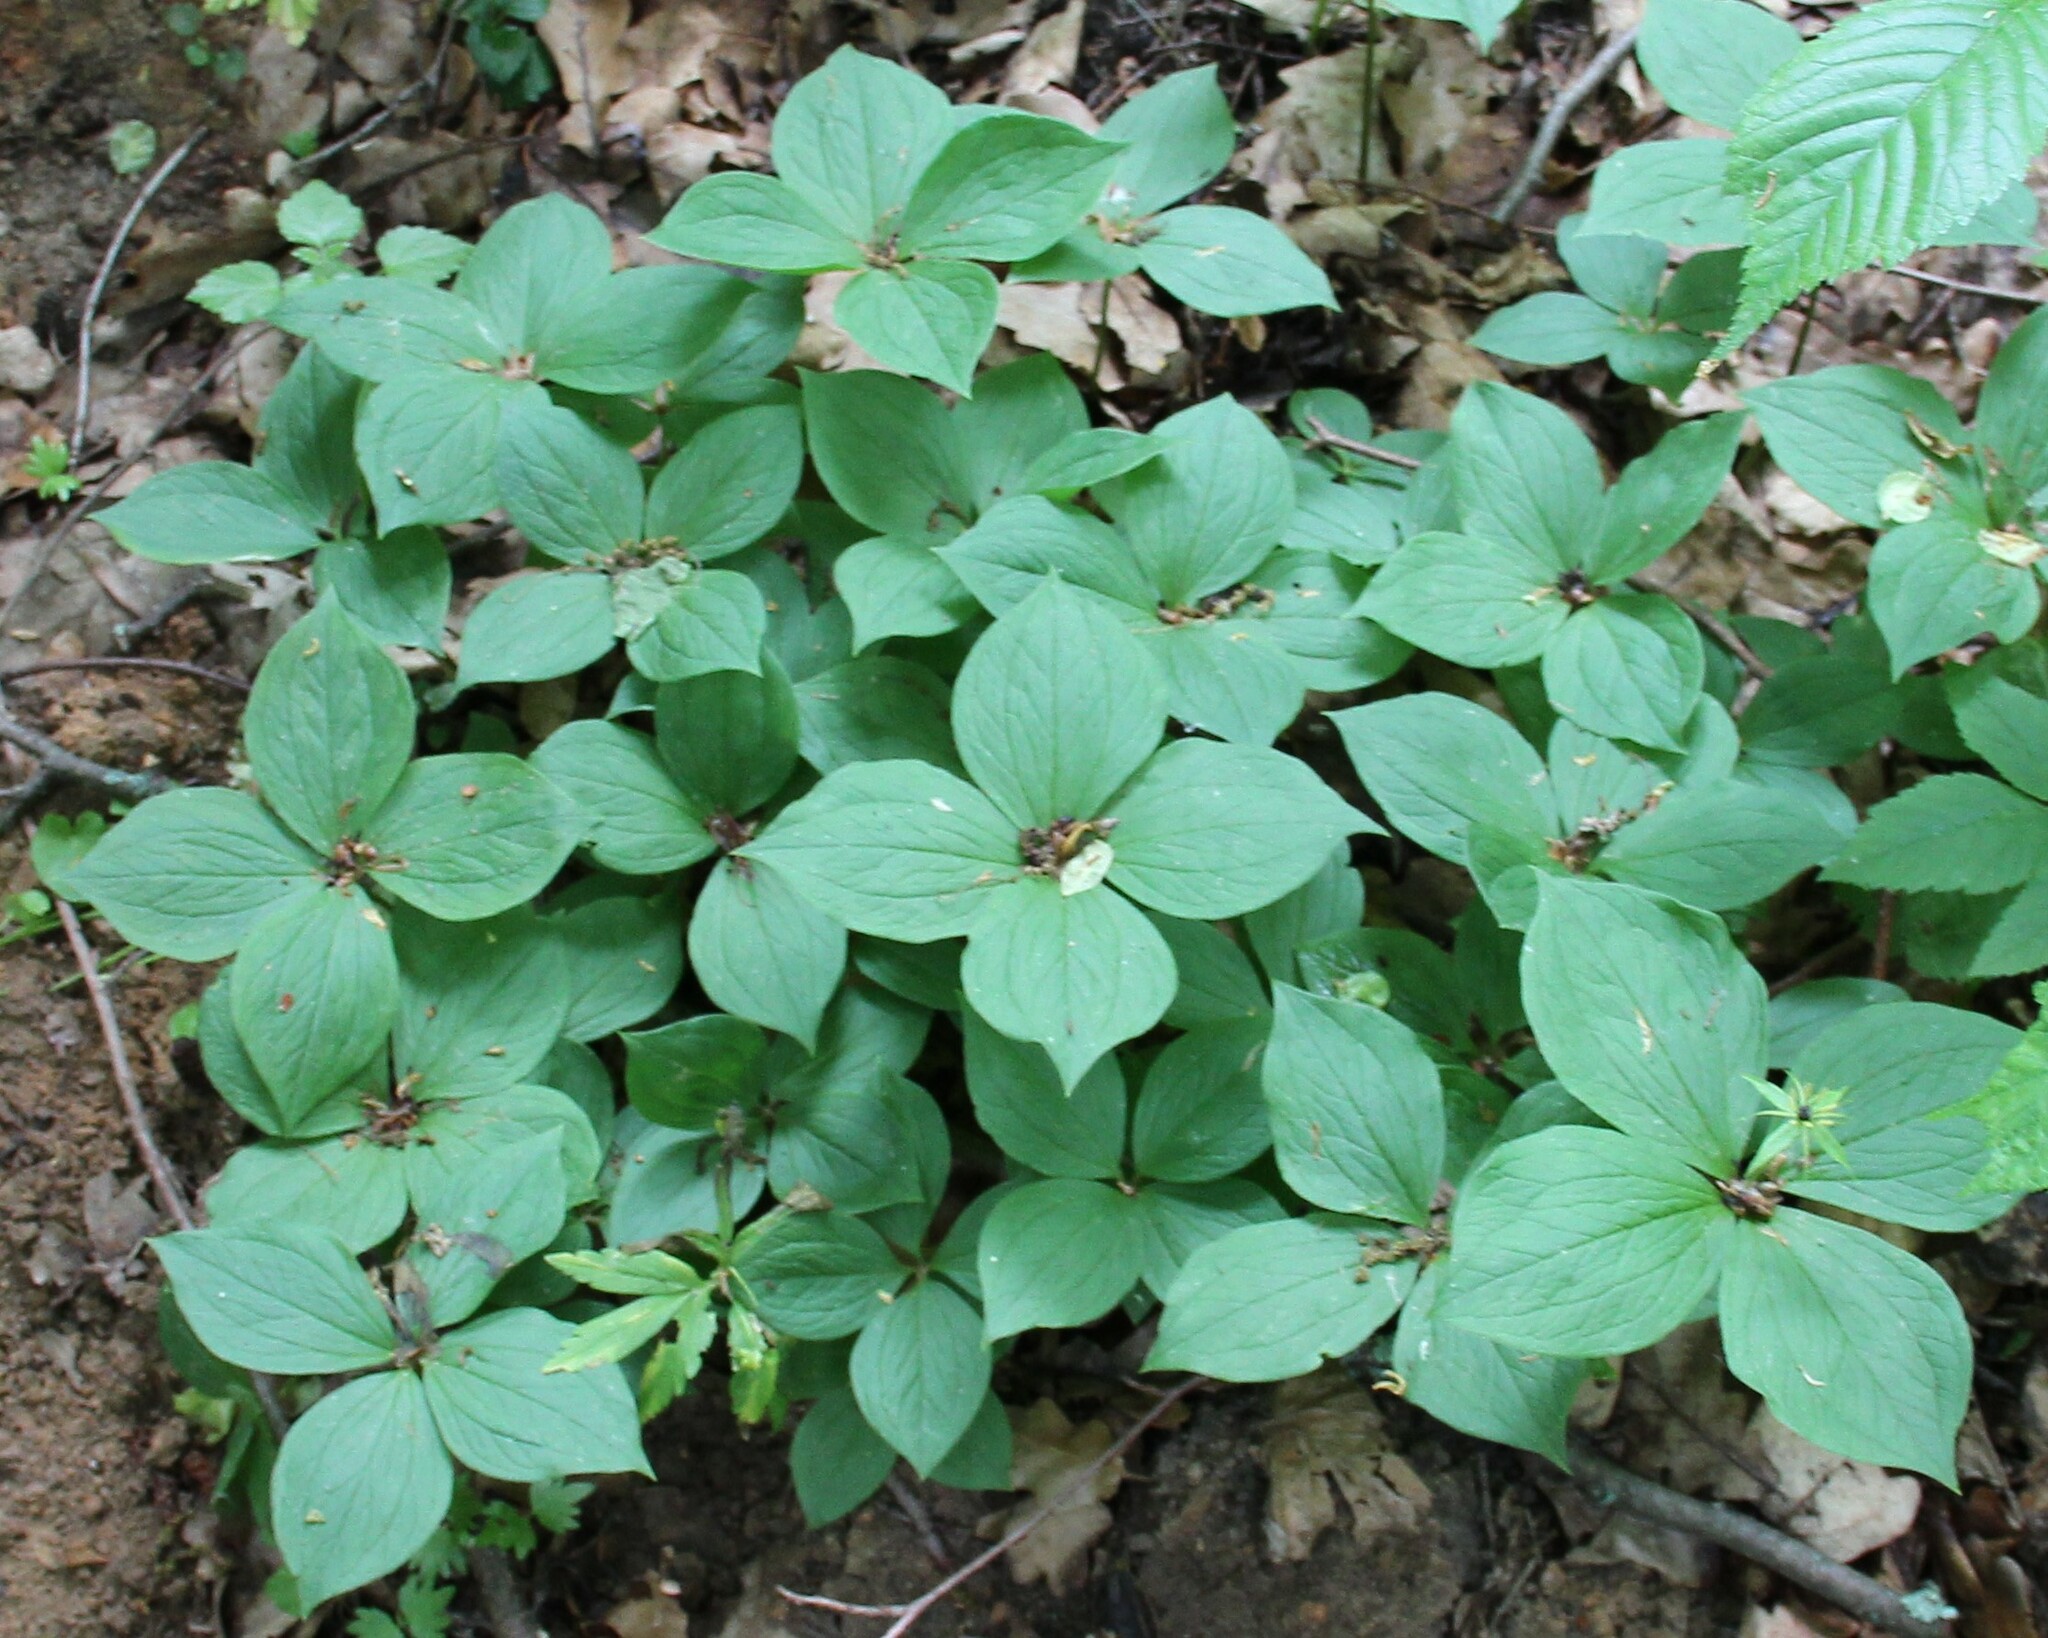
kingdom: Plantae
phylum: Tracheophyta
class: Liliopsida
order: Liliales
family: Melanthiaceae
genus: Paris
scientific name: Paris quadrifolia
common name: Herb-paris
